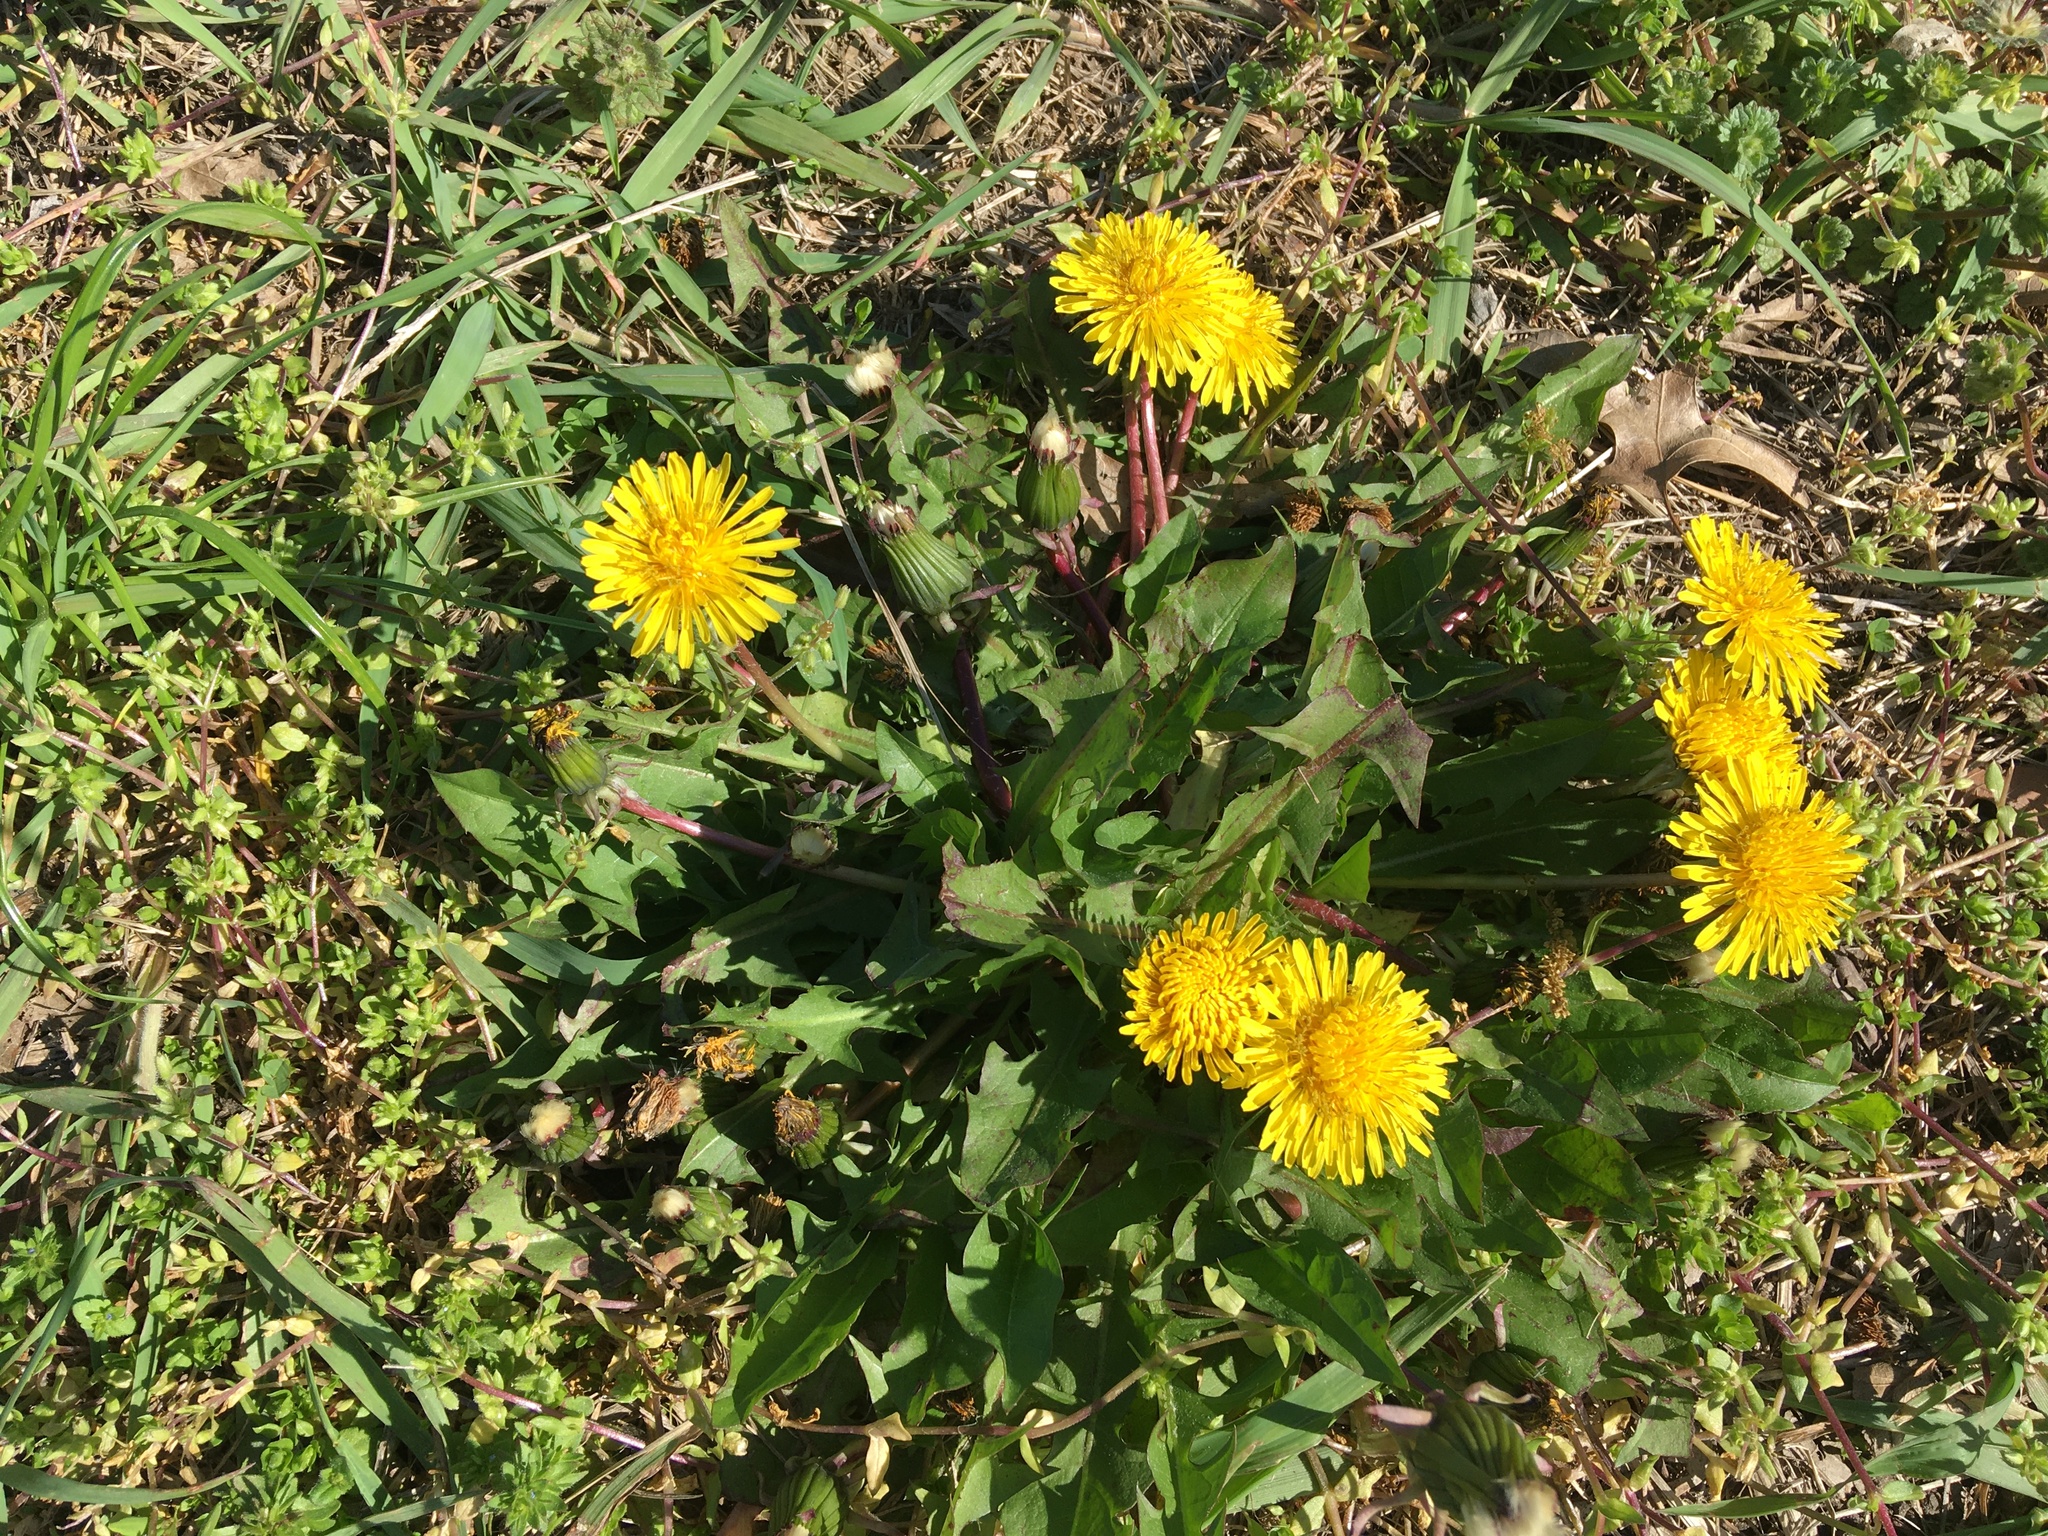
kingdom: Plantae
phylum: Tracheophyta
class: Magnoliopsida
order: Asterales
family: Asteraceae
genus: Taraxacum
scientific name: Taraxacum
